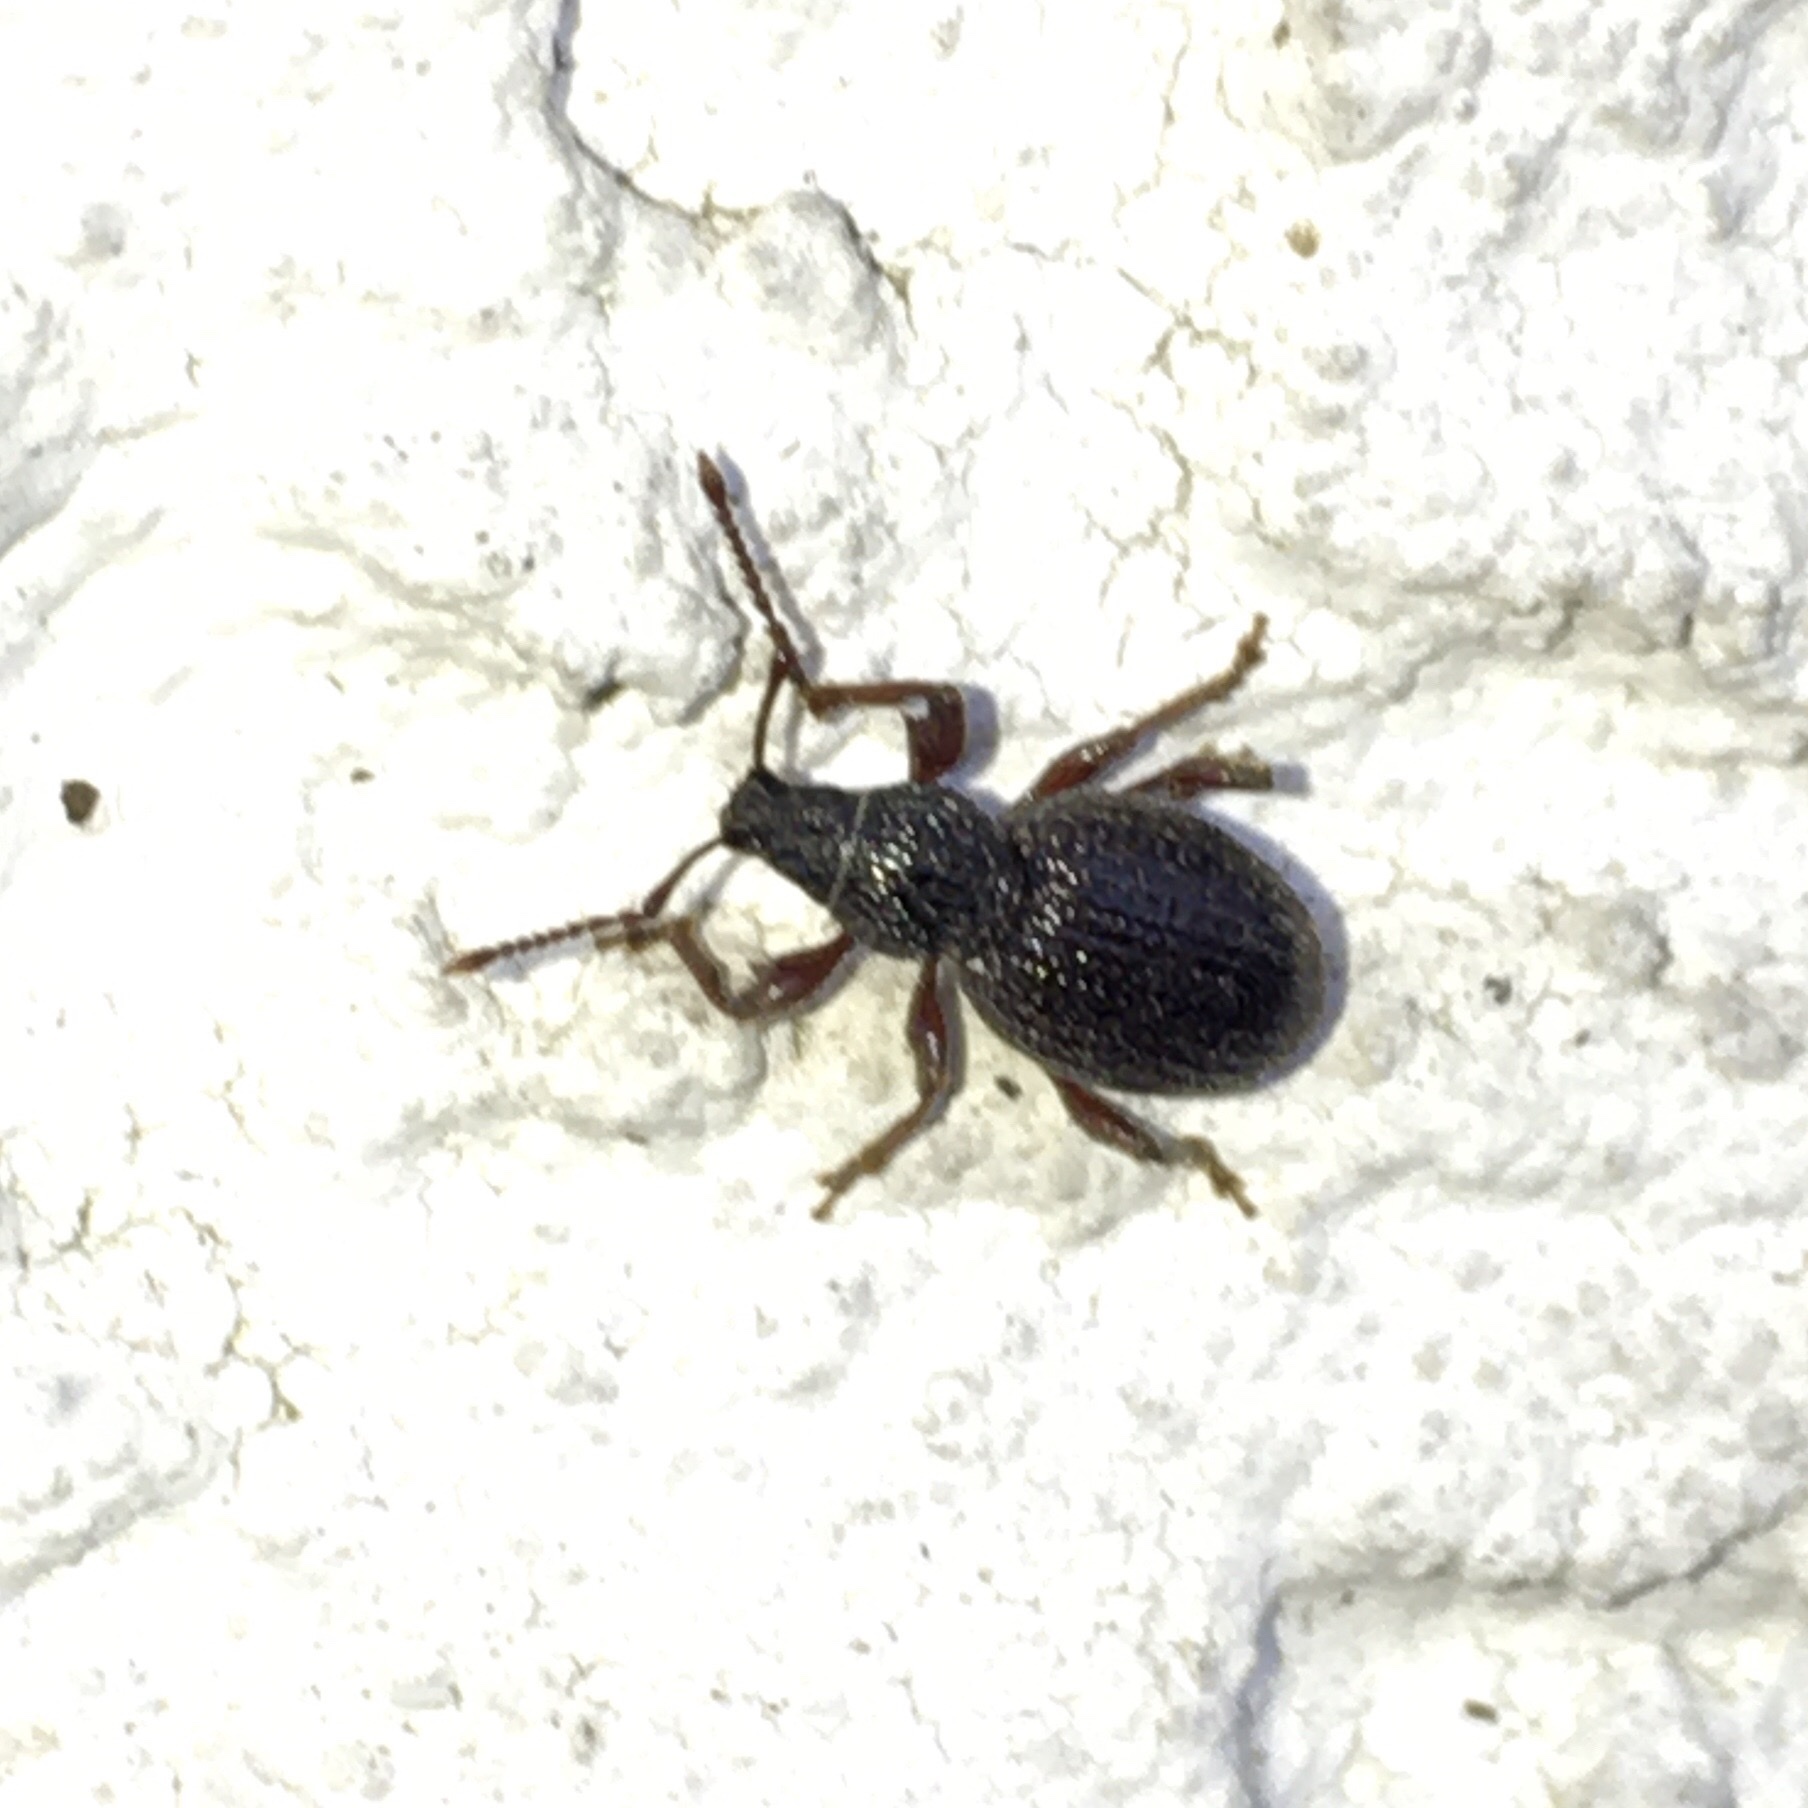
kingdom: Animalia
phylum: Arthropoda
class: Insecta
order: Coleoptera
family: Curculionidae
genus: Otiorhynchus
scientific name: Otiorhynchus ovatus
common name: Strawberry root weevil
